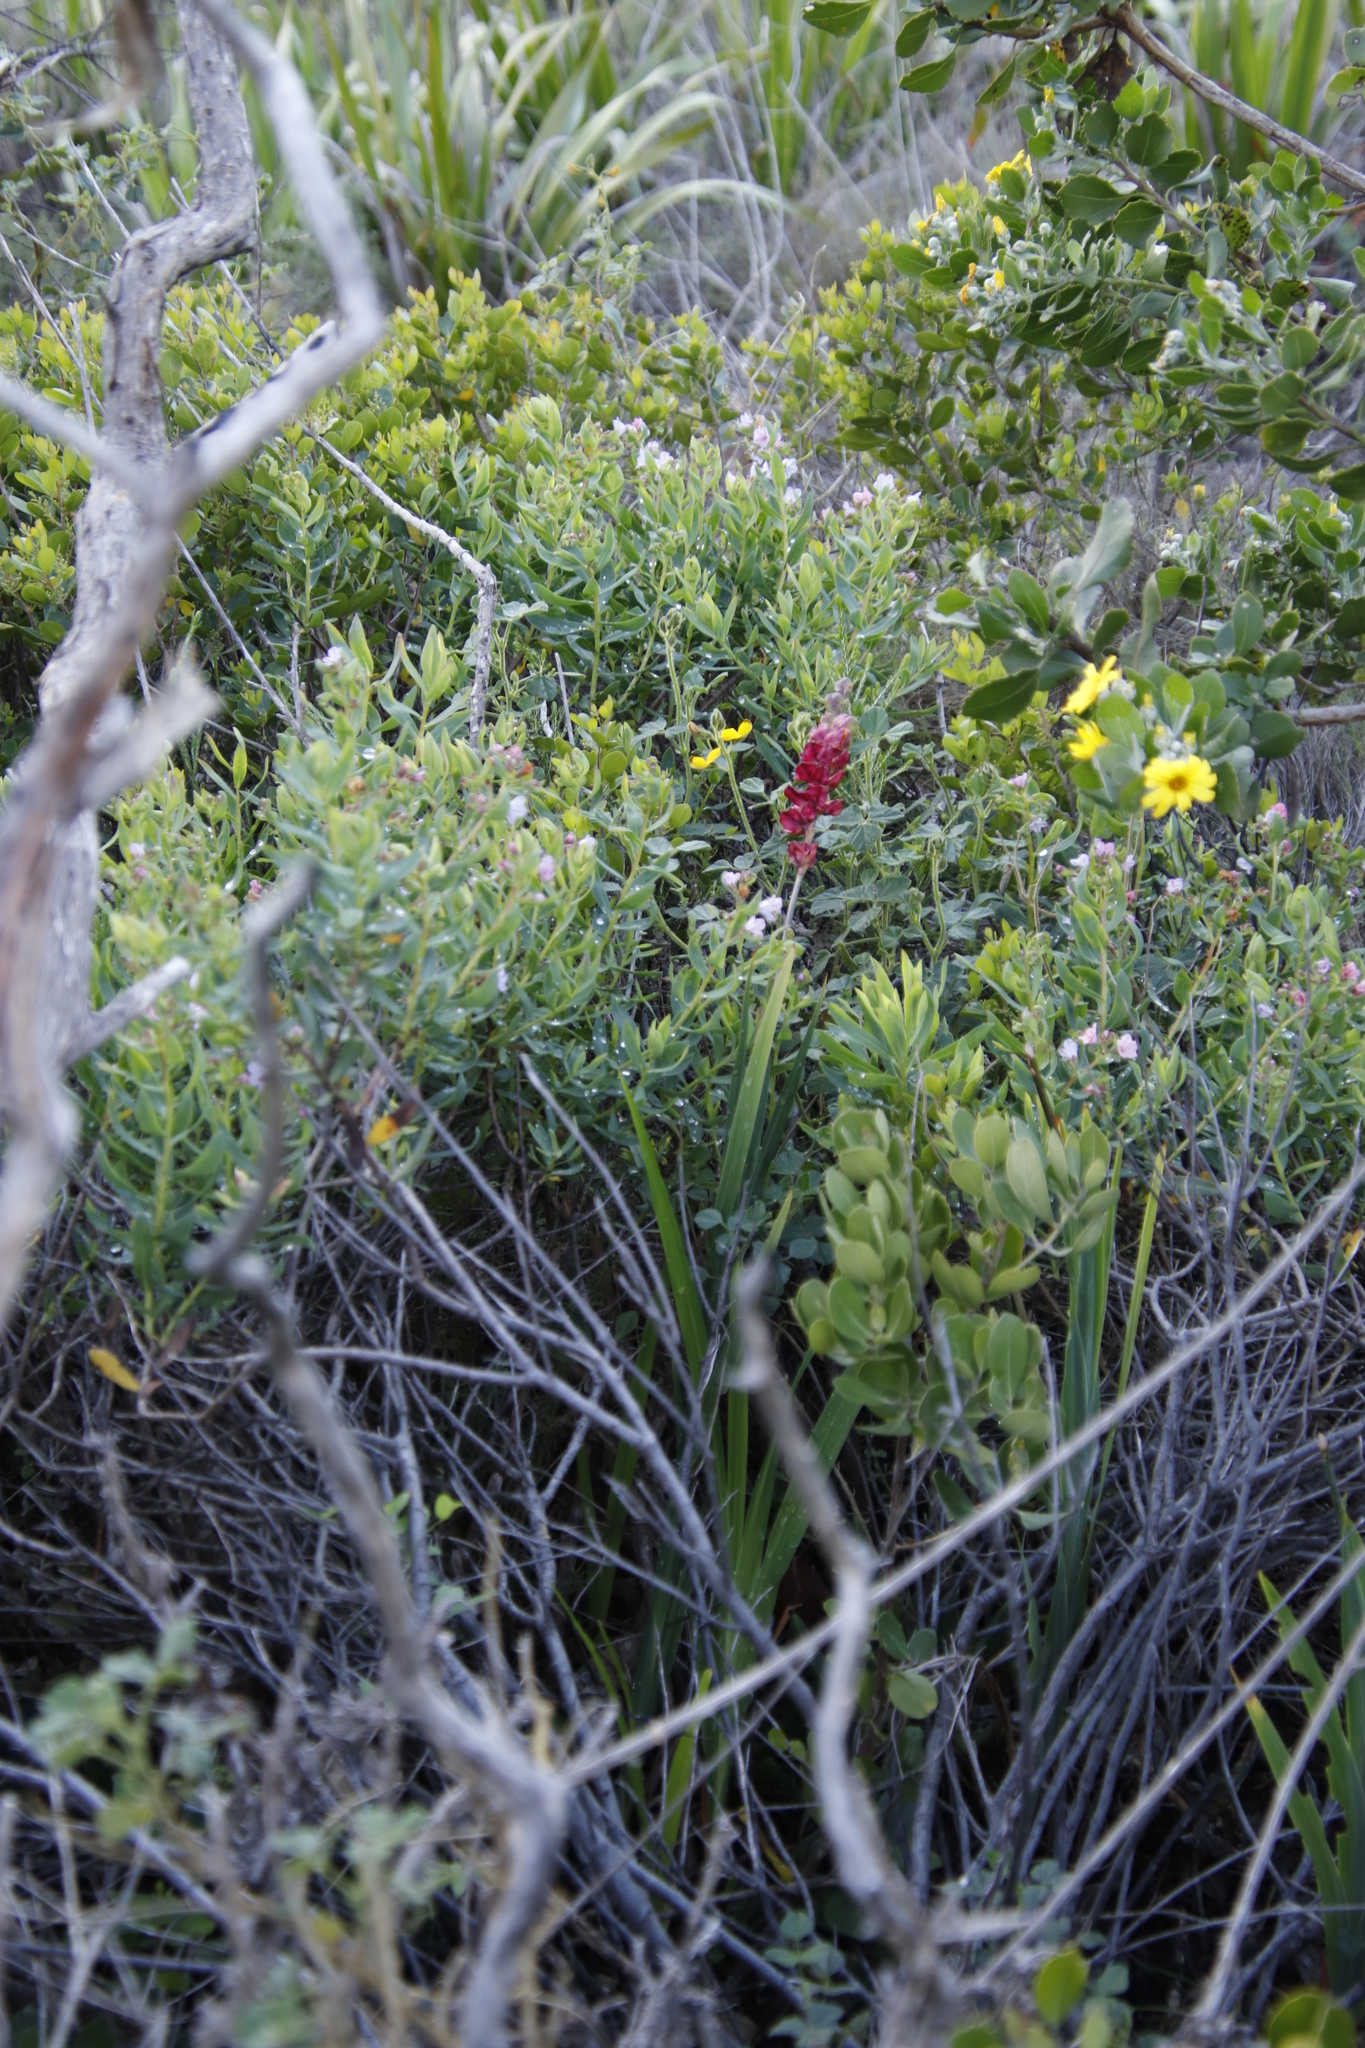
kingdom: Plantae
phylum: Tracheophyta
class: Liliopsida
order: Asparagales
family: Iridaceae
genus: Chasmanthe
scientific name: Chasmanthe aethiopica
